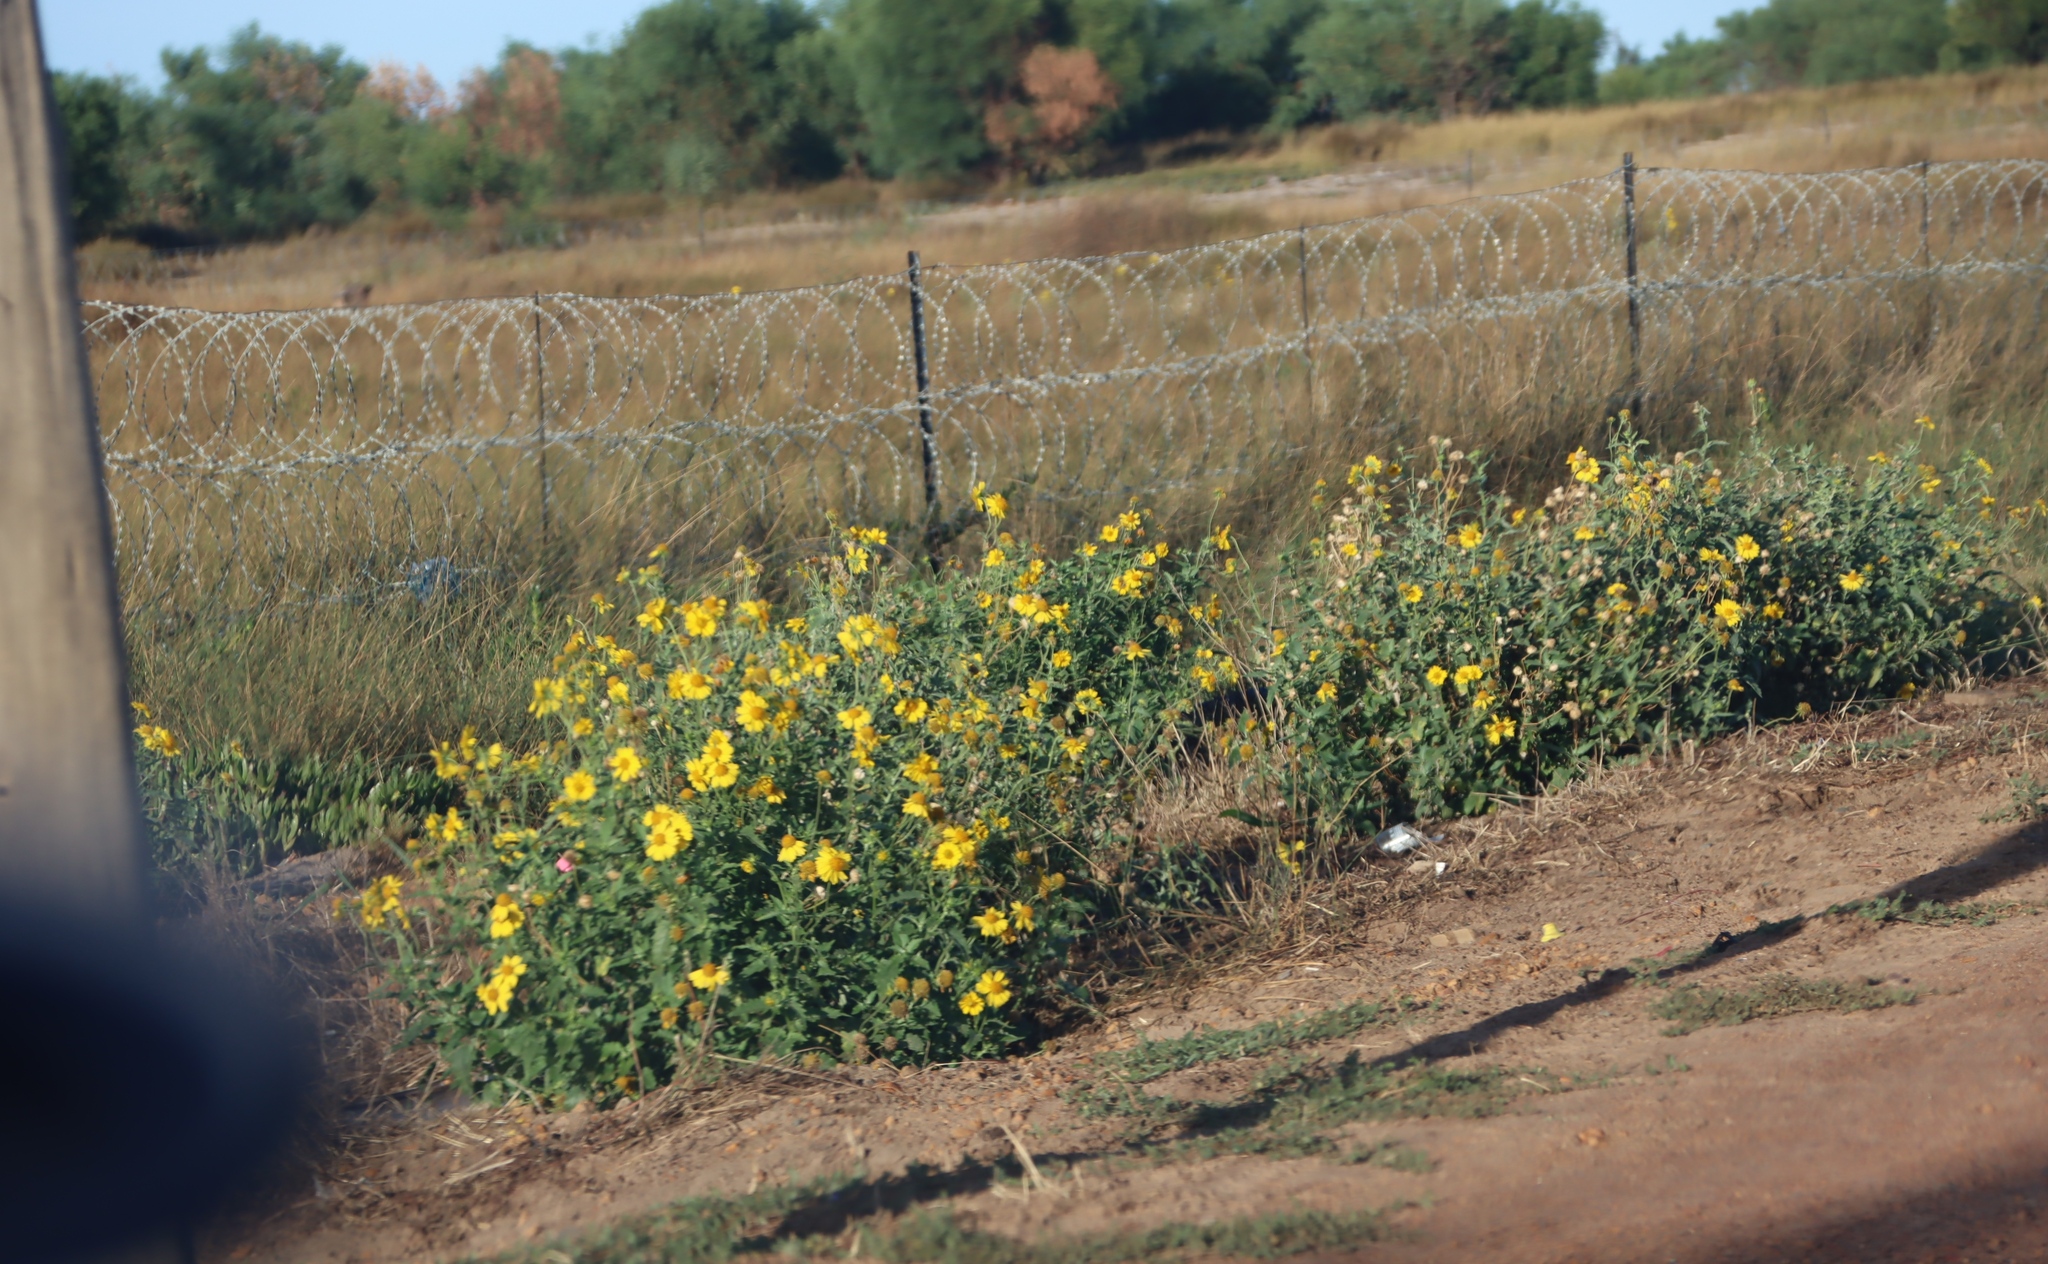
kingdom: Plantae
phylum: Tracheophyta
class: Magnoliopsida
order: Asterales
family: Asteraceae
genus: Verbesina
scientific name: Verbesina encelioides
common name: Golden crownbeard
